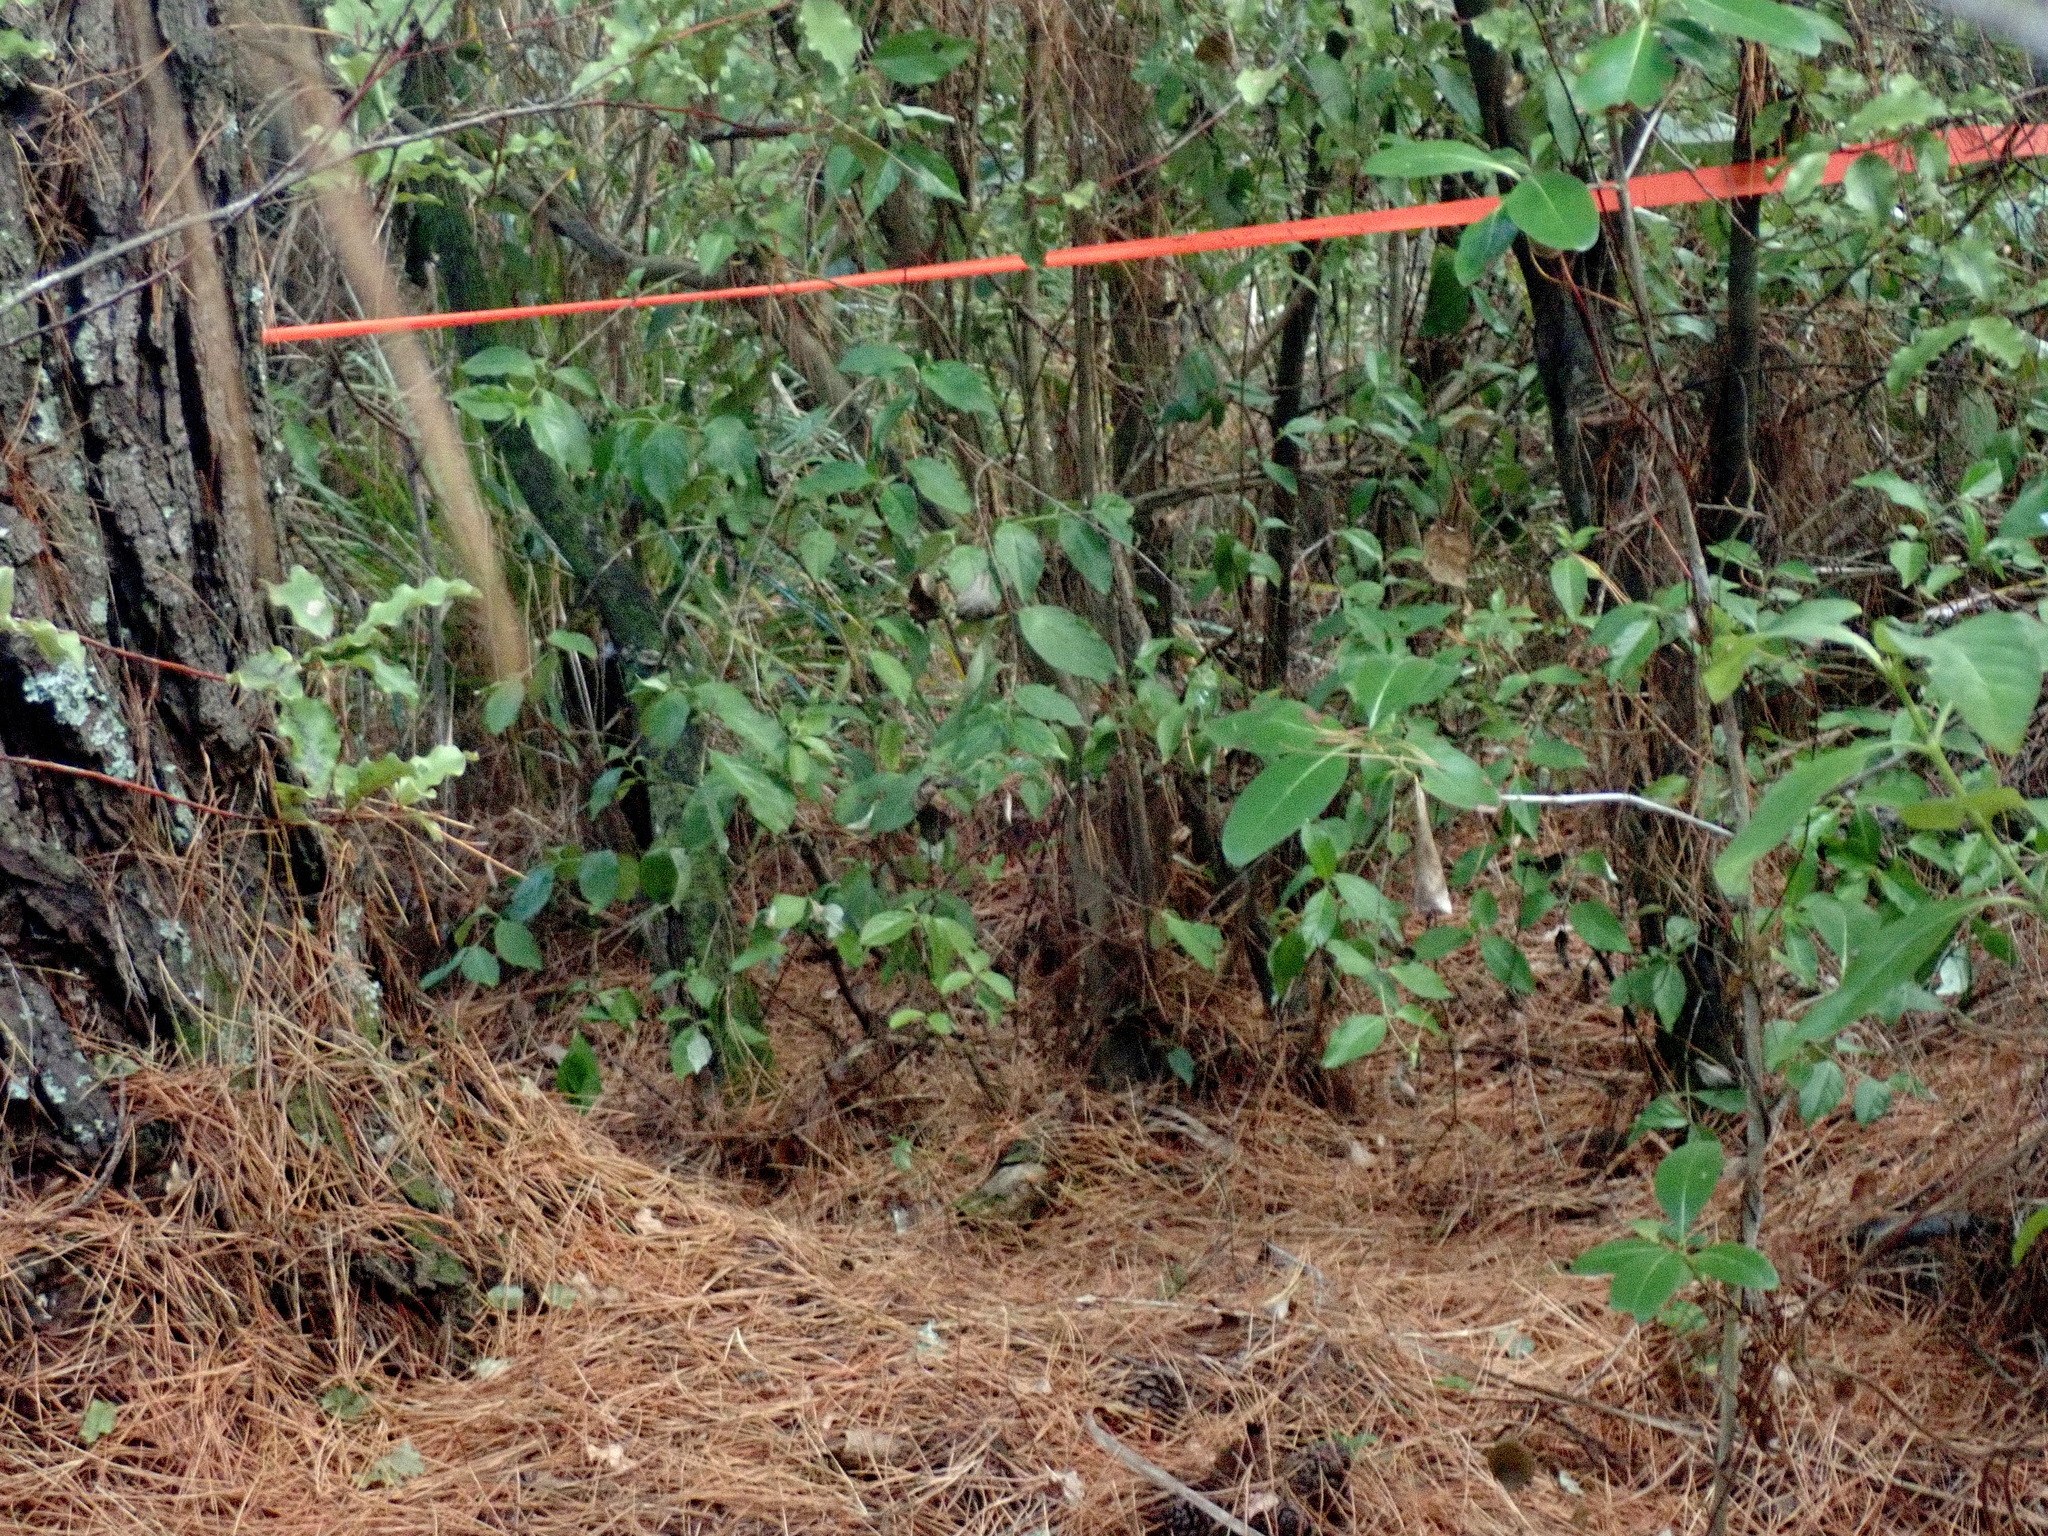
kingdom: Plantae
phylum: Tracheophyta
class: Magnoliopsida
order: Gentianales
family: Loganiaceae
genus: Geniostoma
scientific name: Geniostoma ligustrifolium
